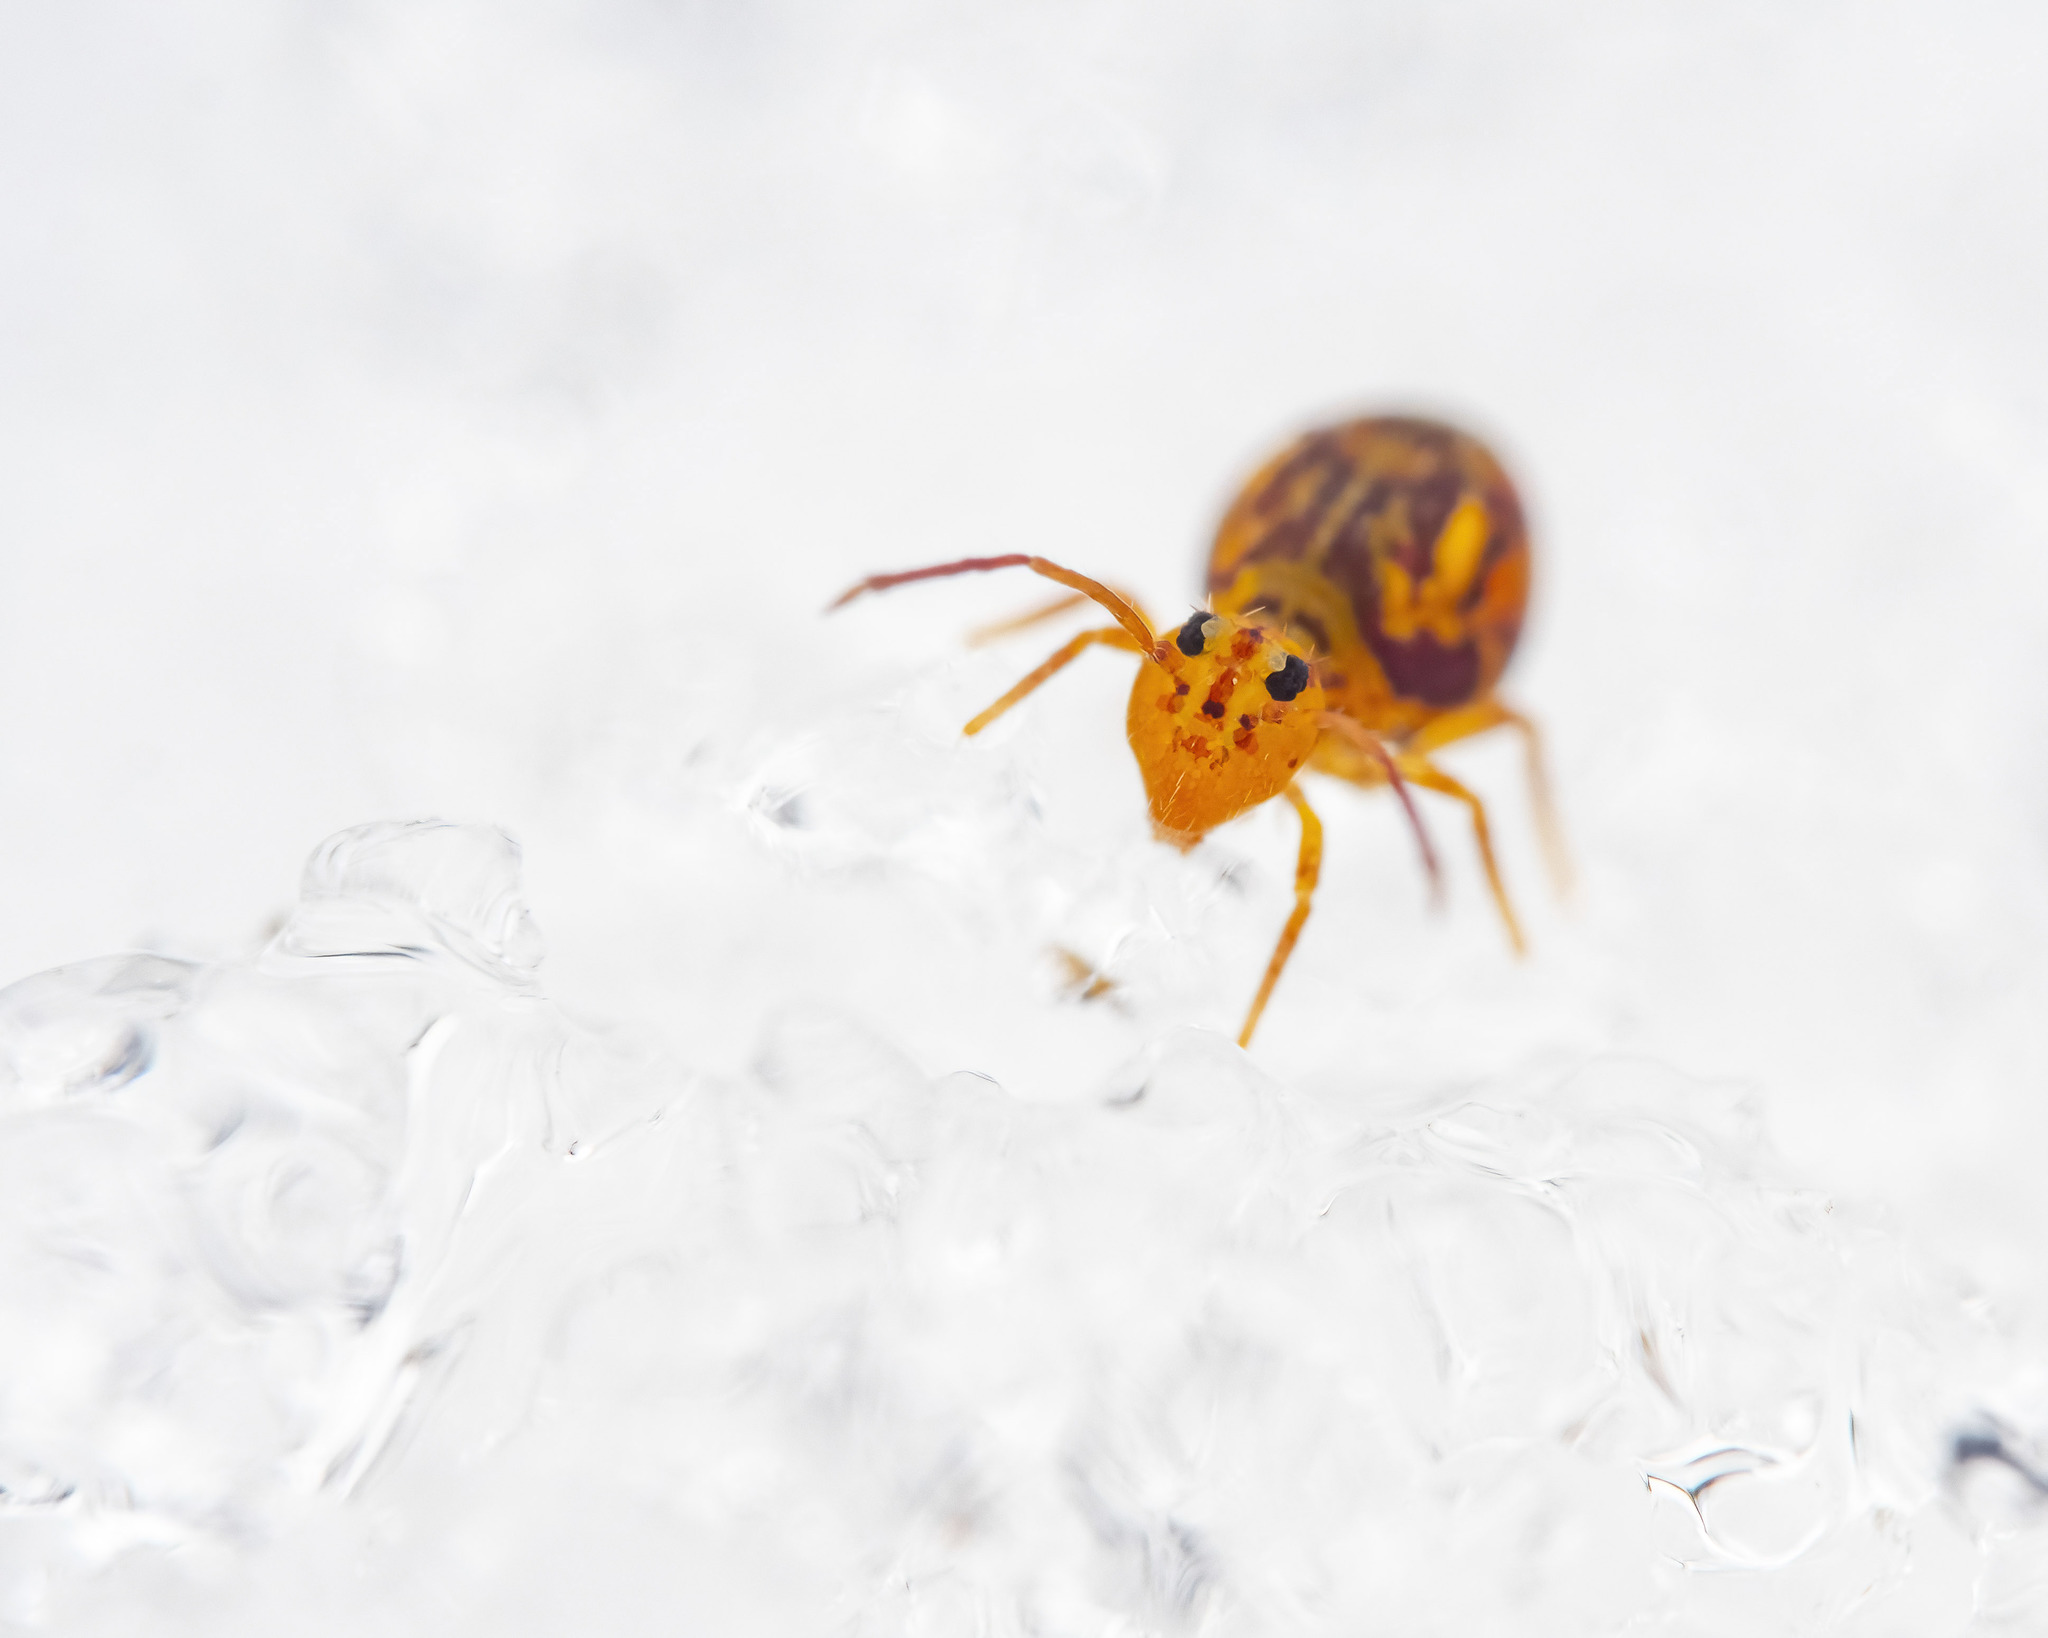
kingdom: Animalia
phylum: Arthropoda
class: Collembola
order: Symphypleona
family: Dicyrtomidae
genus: Dicyrtomina
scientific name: Dicyrtomina ornata
